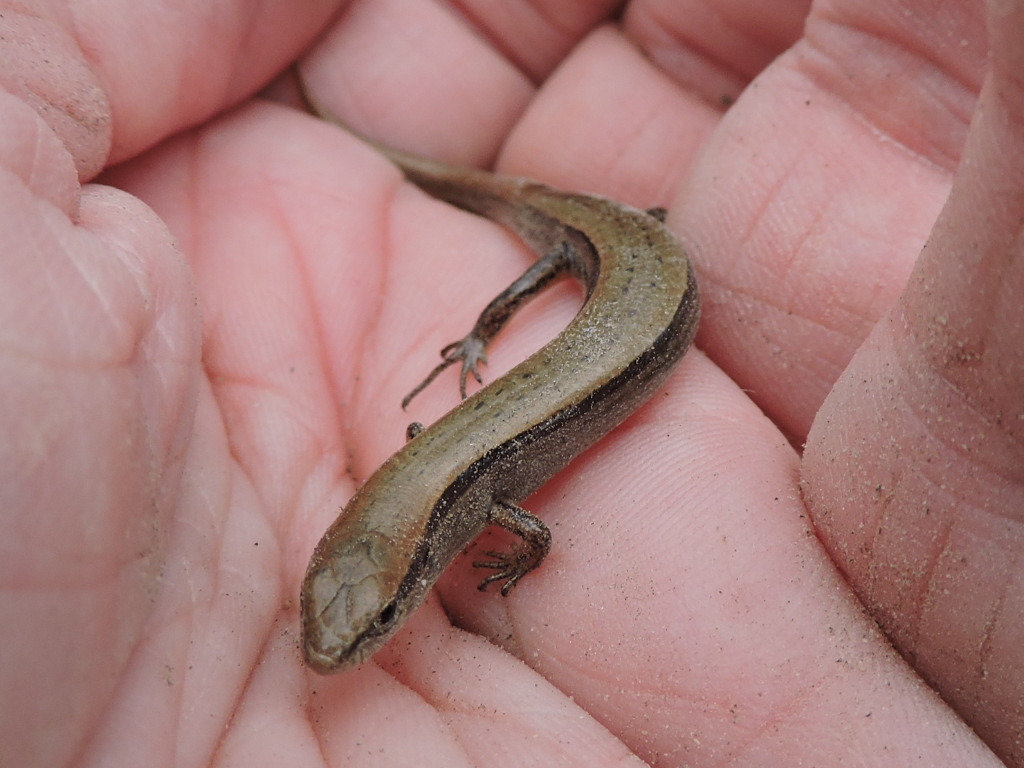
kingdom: Animalia
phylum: Chordata
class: Squamata
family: Scincidae
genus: Scincella
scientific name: Scincella lateralis
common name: Ground skink
